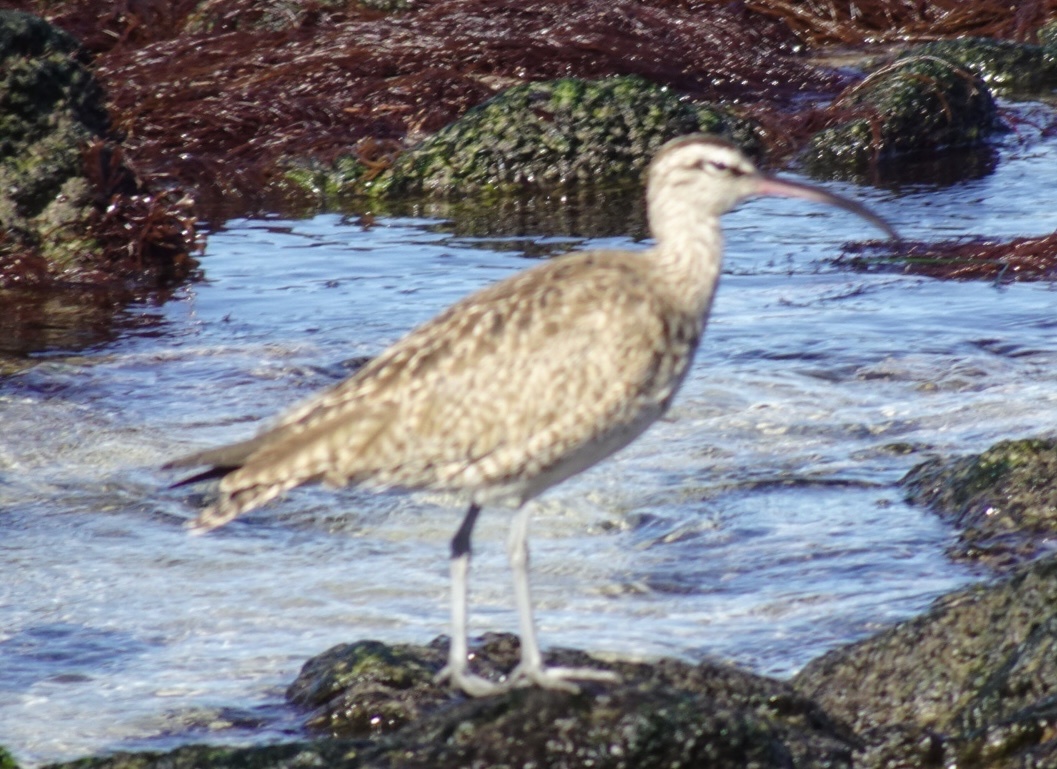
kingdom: Animalia
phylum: Chordata
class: Aves
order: Charadriiformes
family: Scolopacidae
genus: Numenius
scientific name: Numenius phaeopus
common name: Whimbrel
